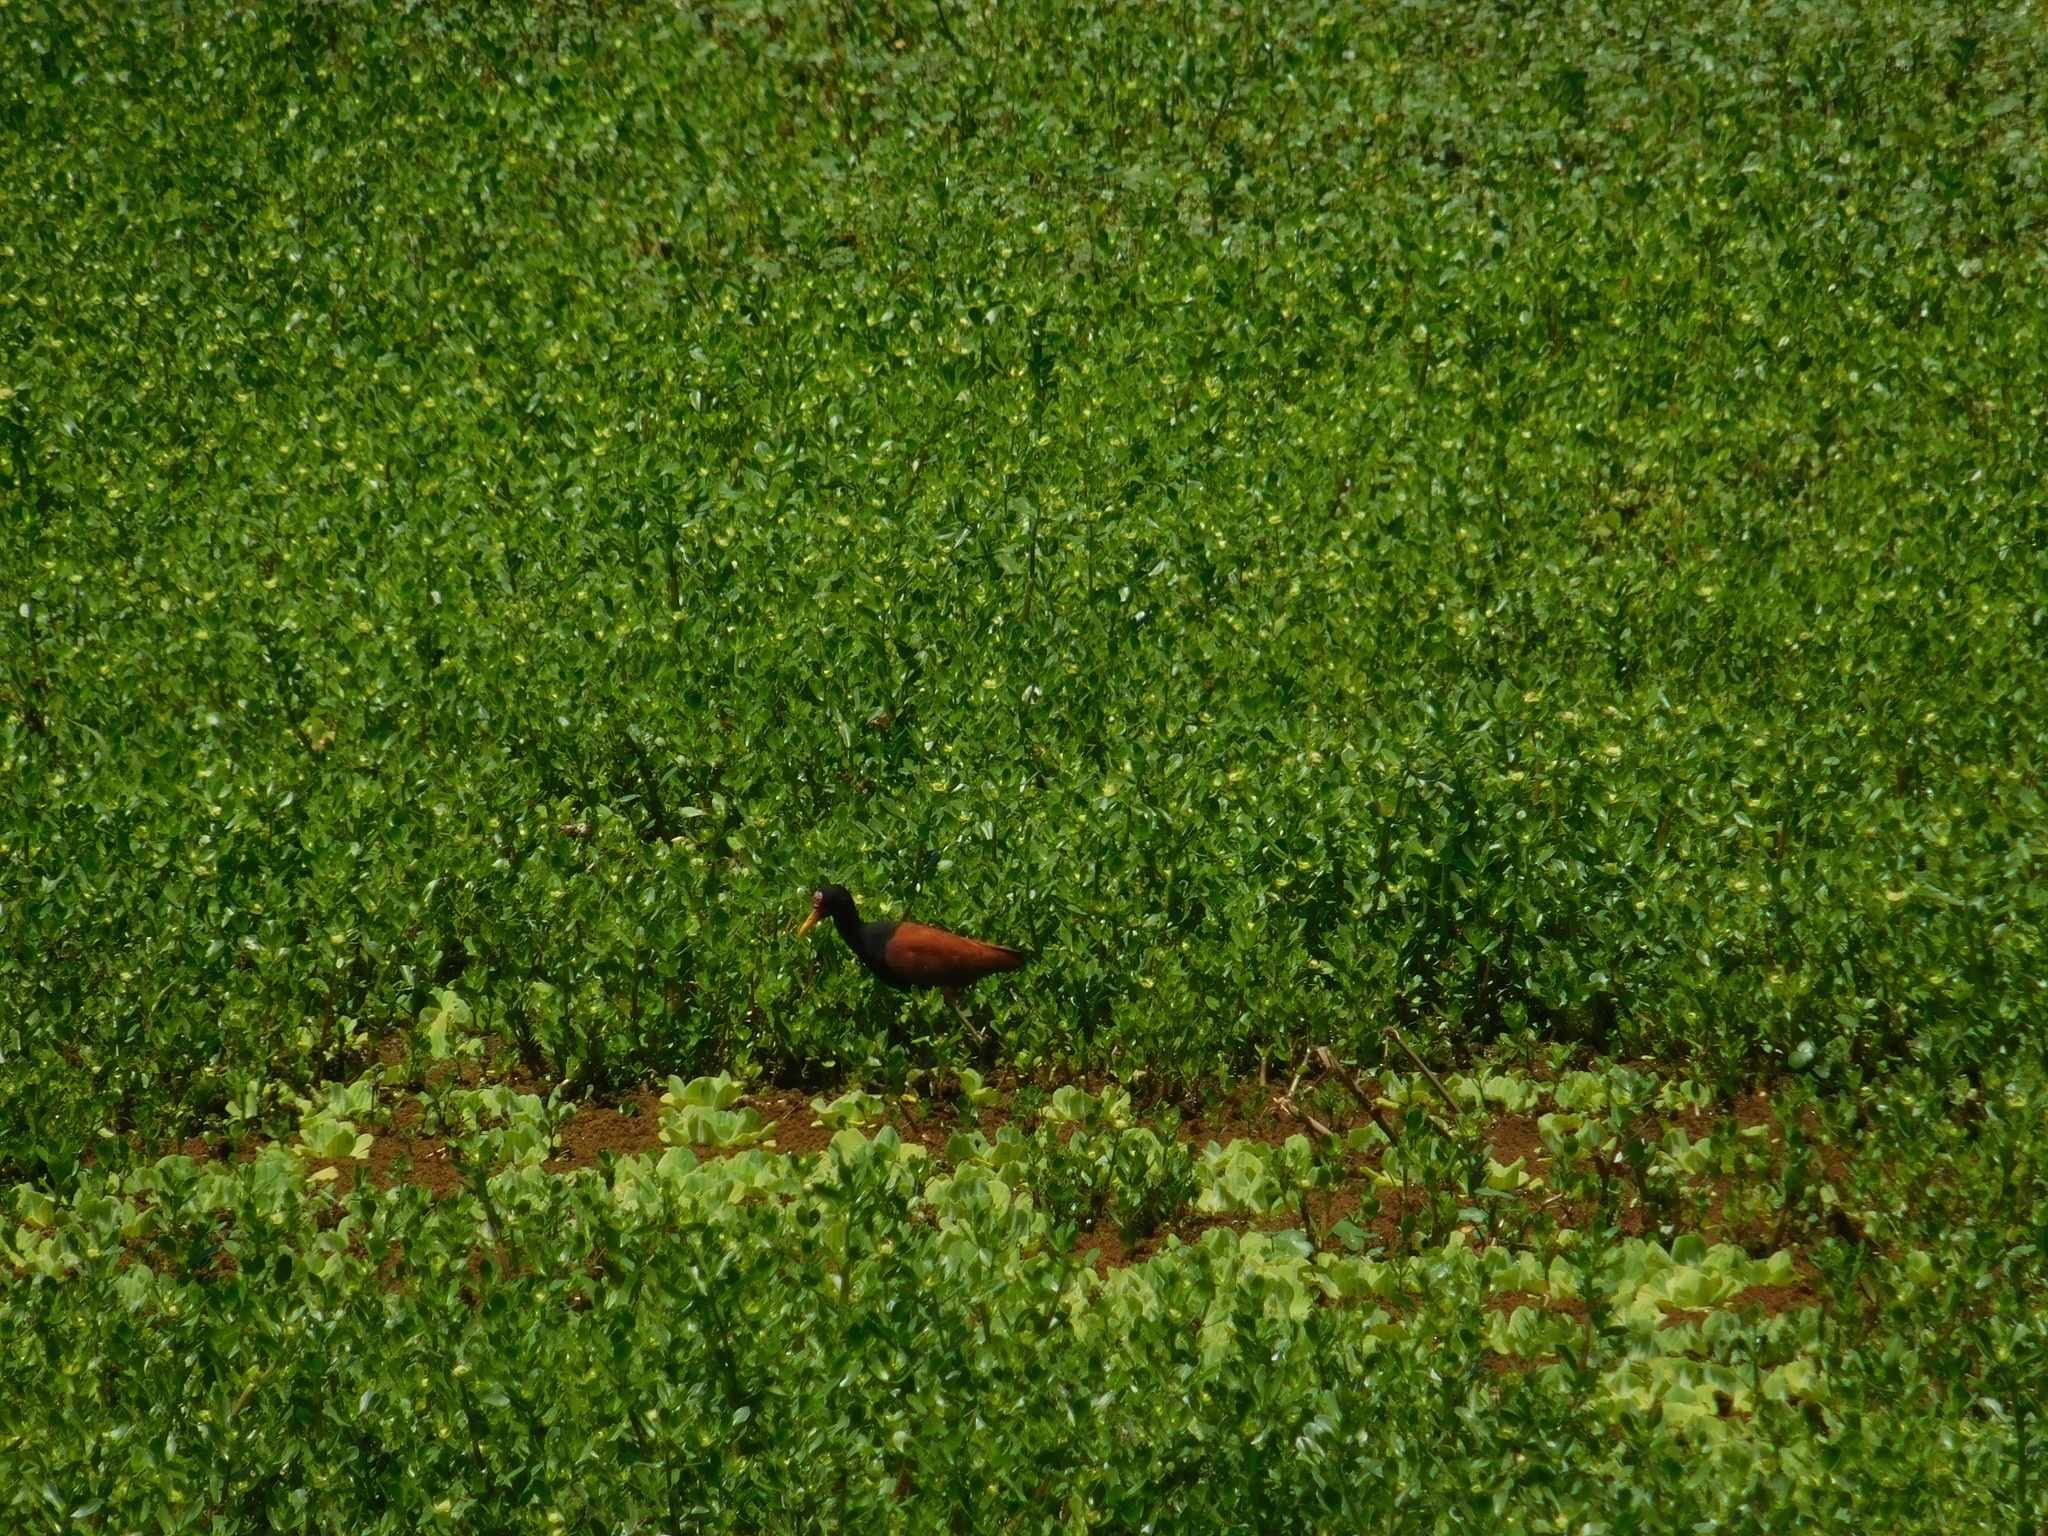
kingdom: Animalia
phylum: Chordata
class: Aves
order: Charadriiformes
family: Jacanidae
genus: Jacana
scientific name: Jacana jacana
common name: Wattled jacana
